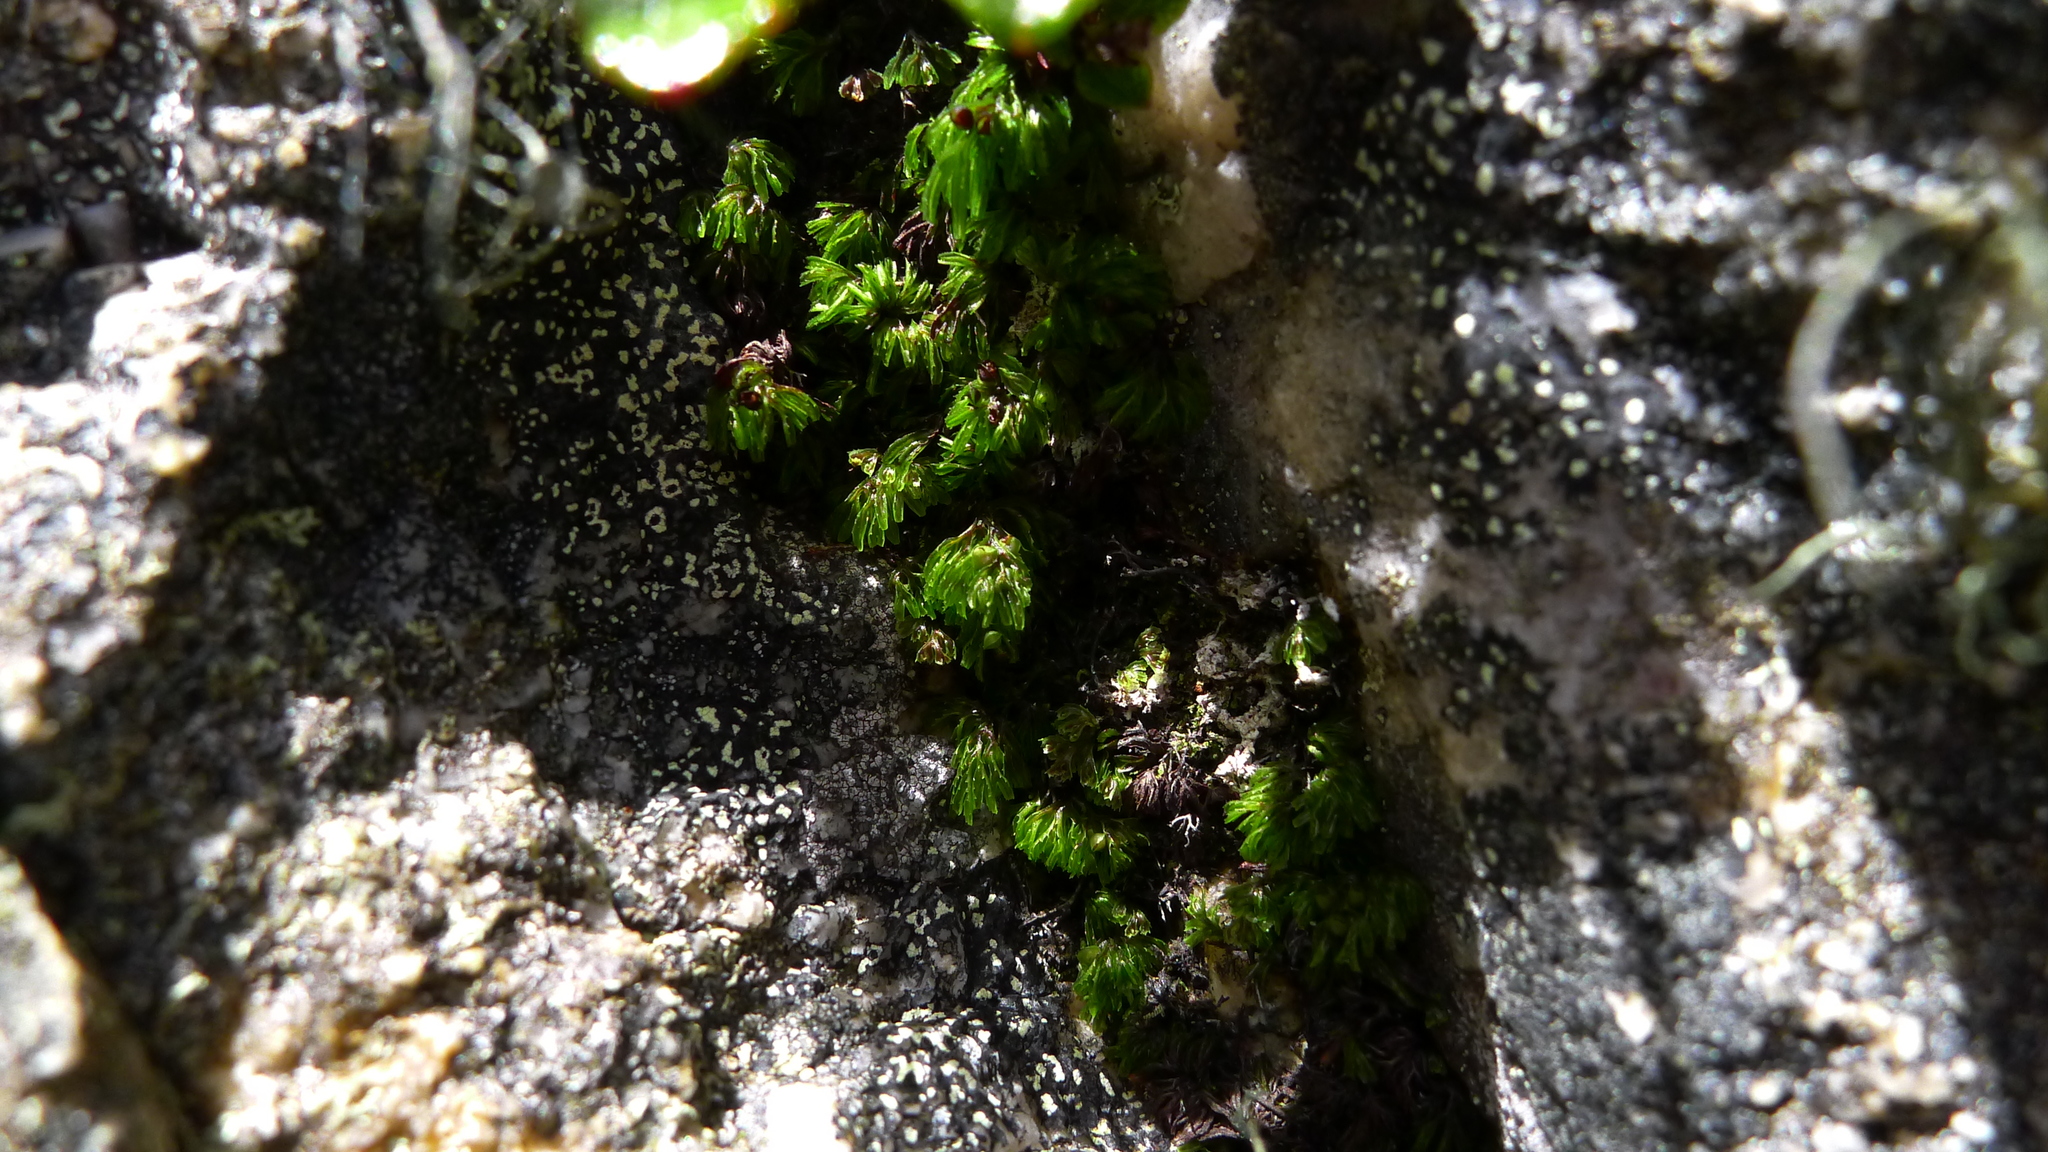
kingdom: Plantae
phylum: Tracheophyta
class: Polypodiopsida
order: Hymenophyllales
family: Hymenophyllaceae
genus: Hymenophyllum
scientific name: Hymenophyllum multifidum
